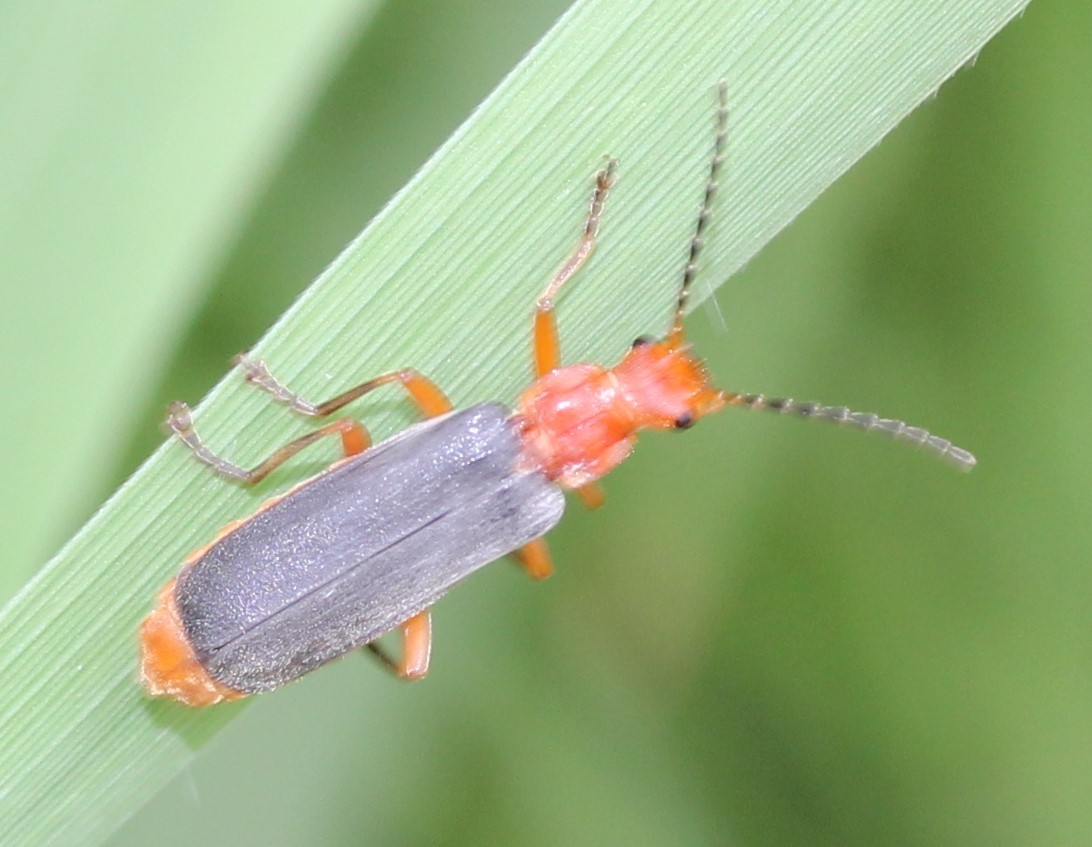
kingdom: Animalia
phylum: Arthropoda
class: Insecta
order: Coleoptera
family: Cantharidae
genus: Podabrus
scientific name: Podabrus tomentosus
